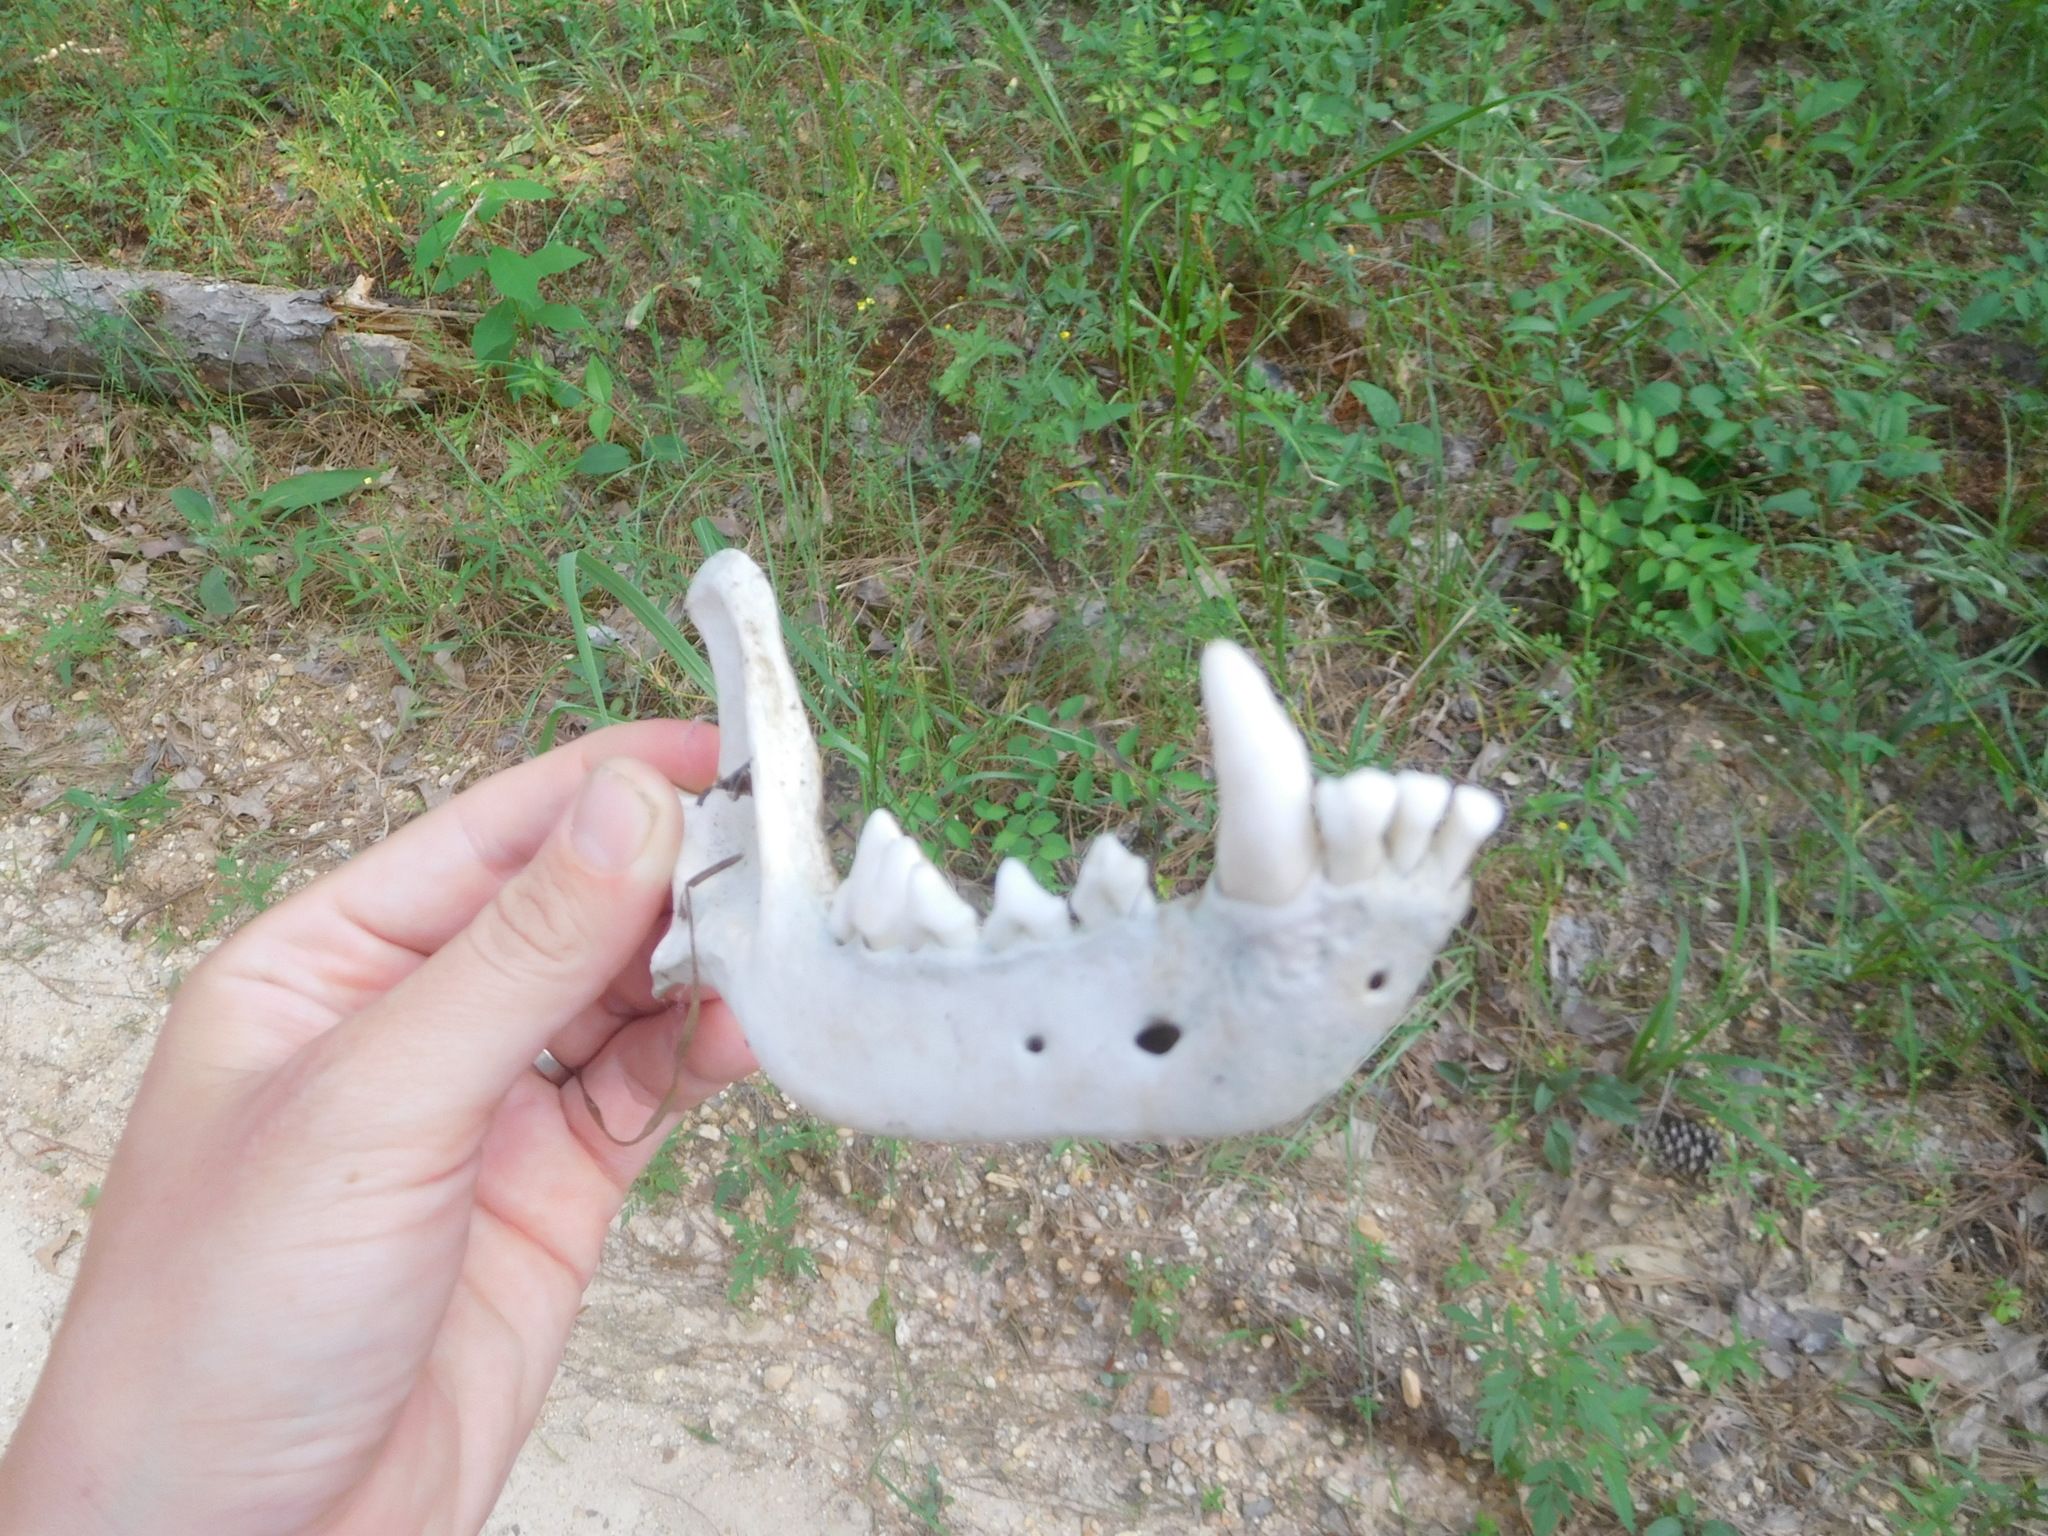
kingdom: Animalia
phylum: Chordata
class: Mammalia
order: Carnivora
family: Canidae
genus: Canis
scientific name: Canis latrans
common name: Coyote
